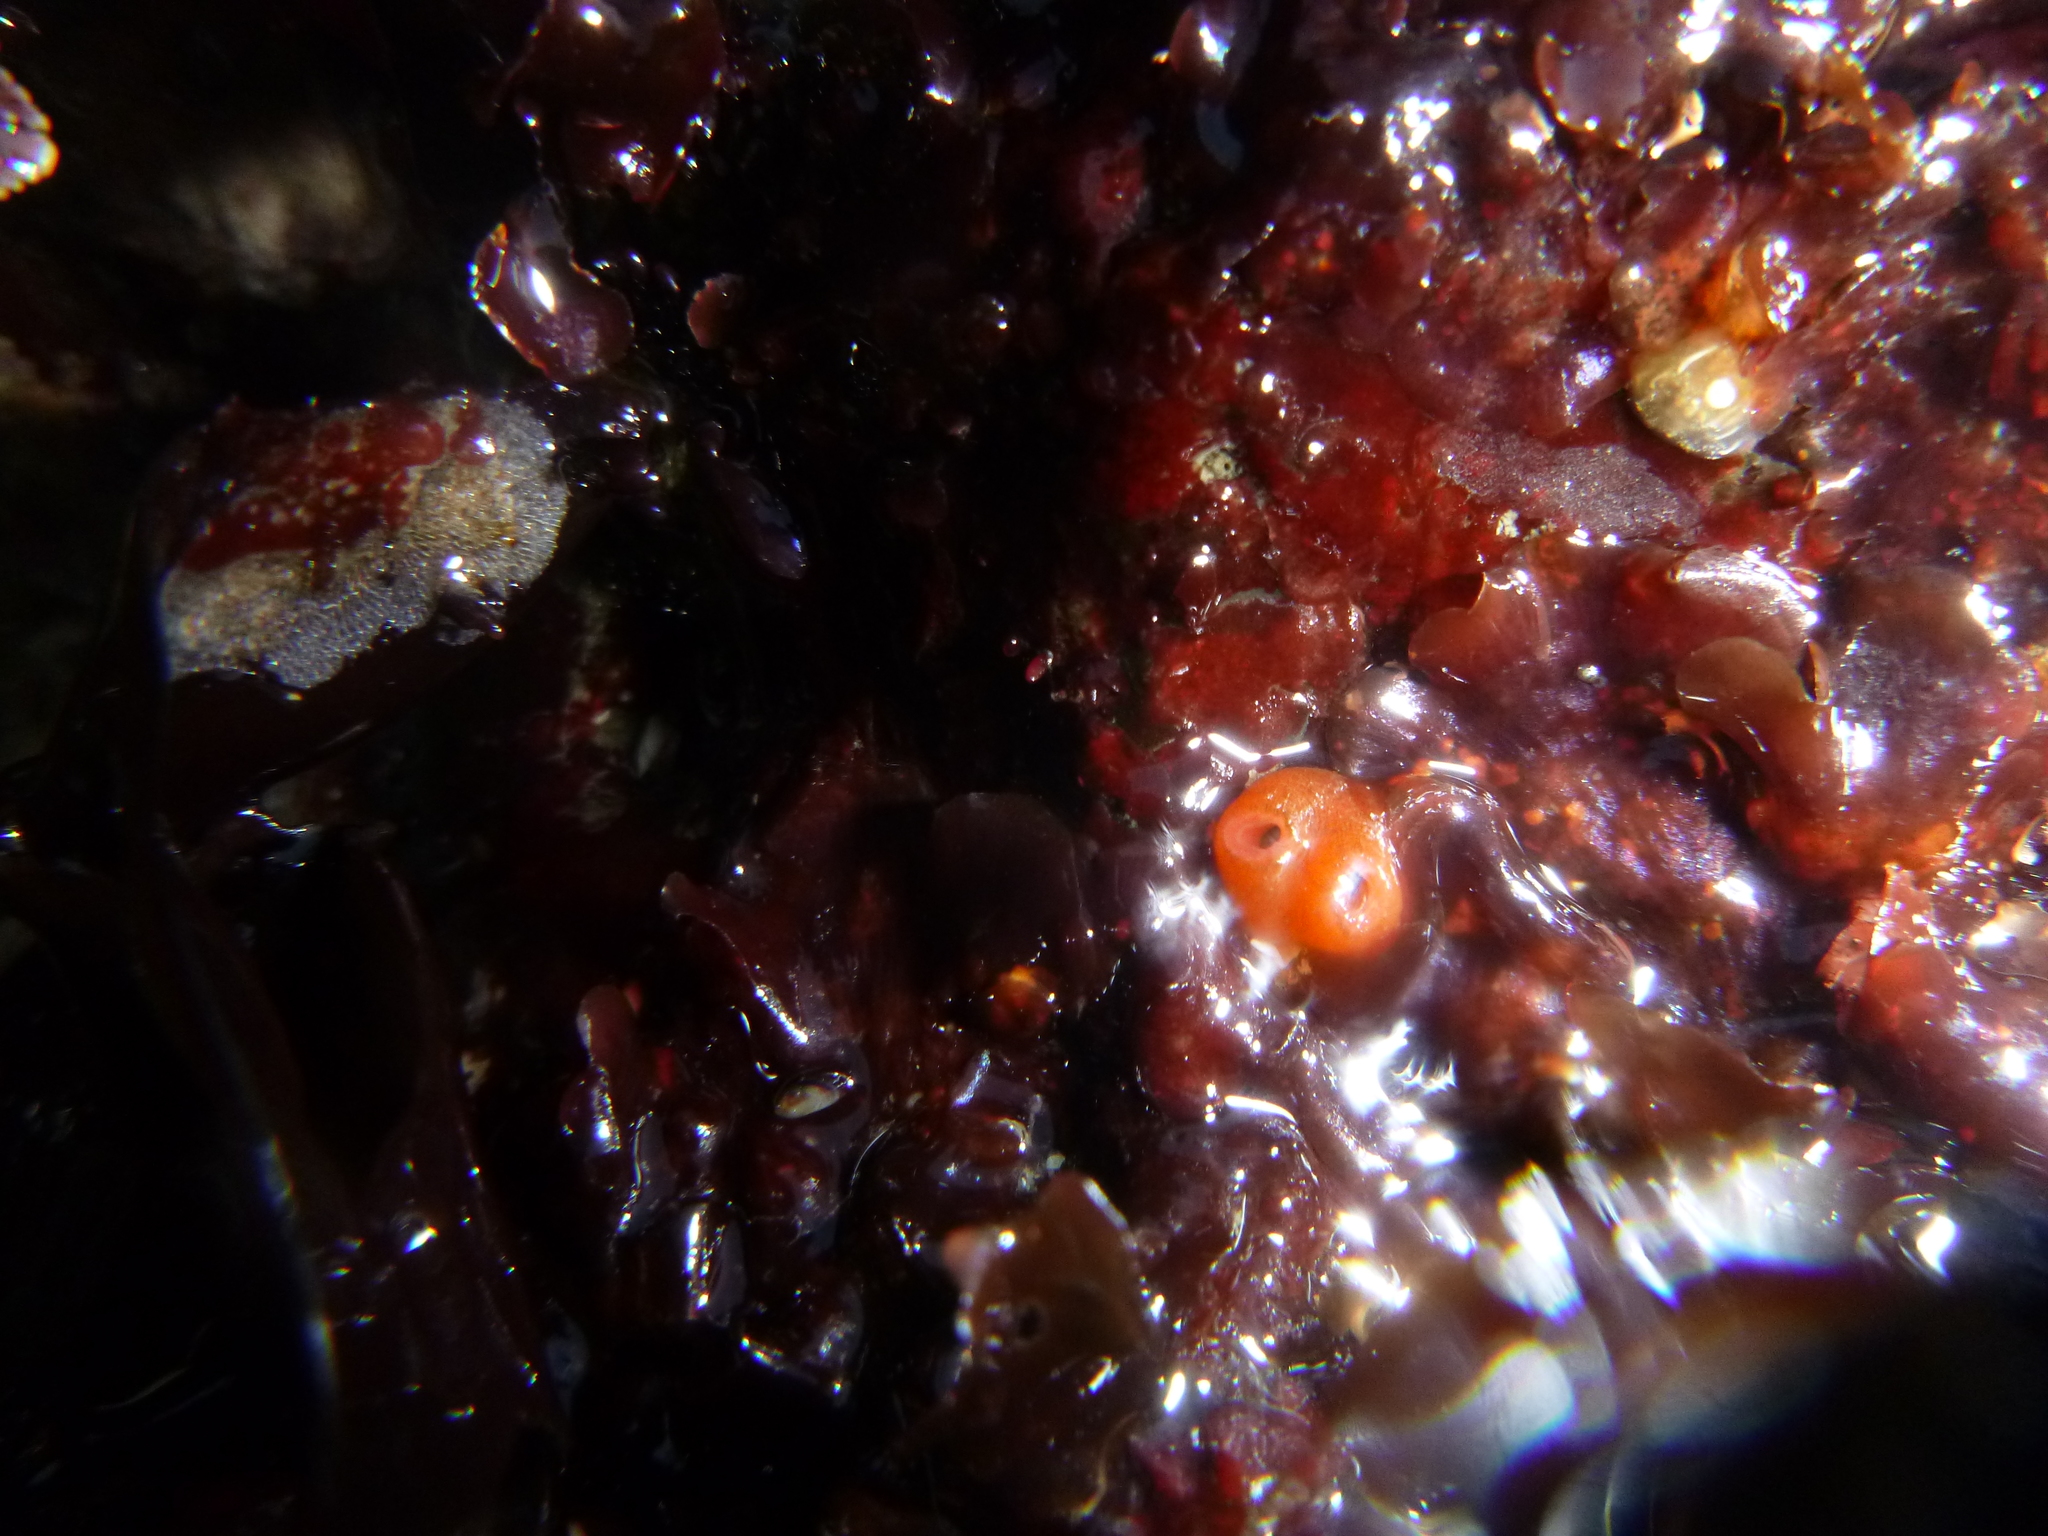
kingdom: Animalia
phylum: Mollusca
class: Bivalvia
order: Adapedonta
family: Hiatellidae
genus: Hiatella
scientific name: Hiatella arctica
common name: Arctic hiatella
